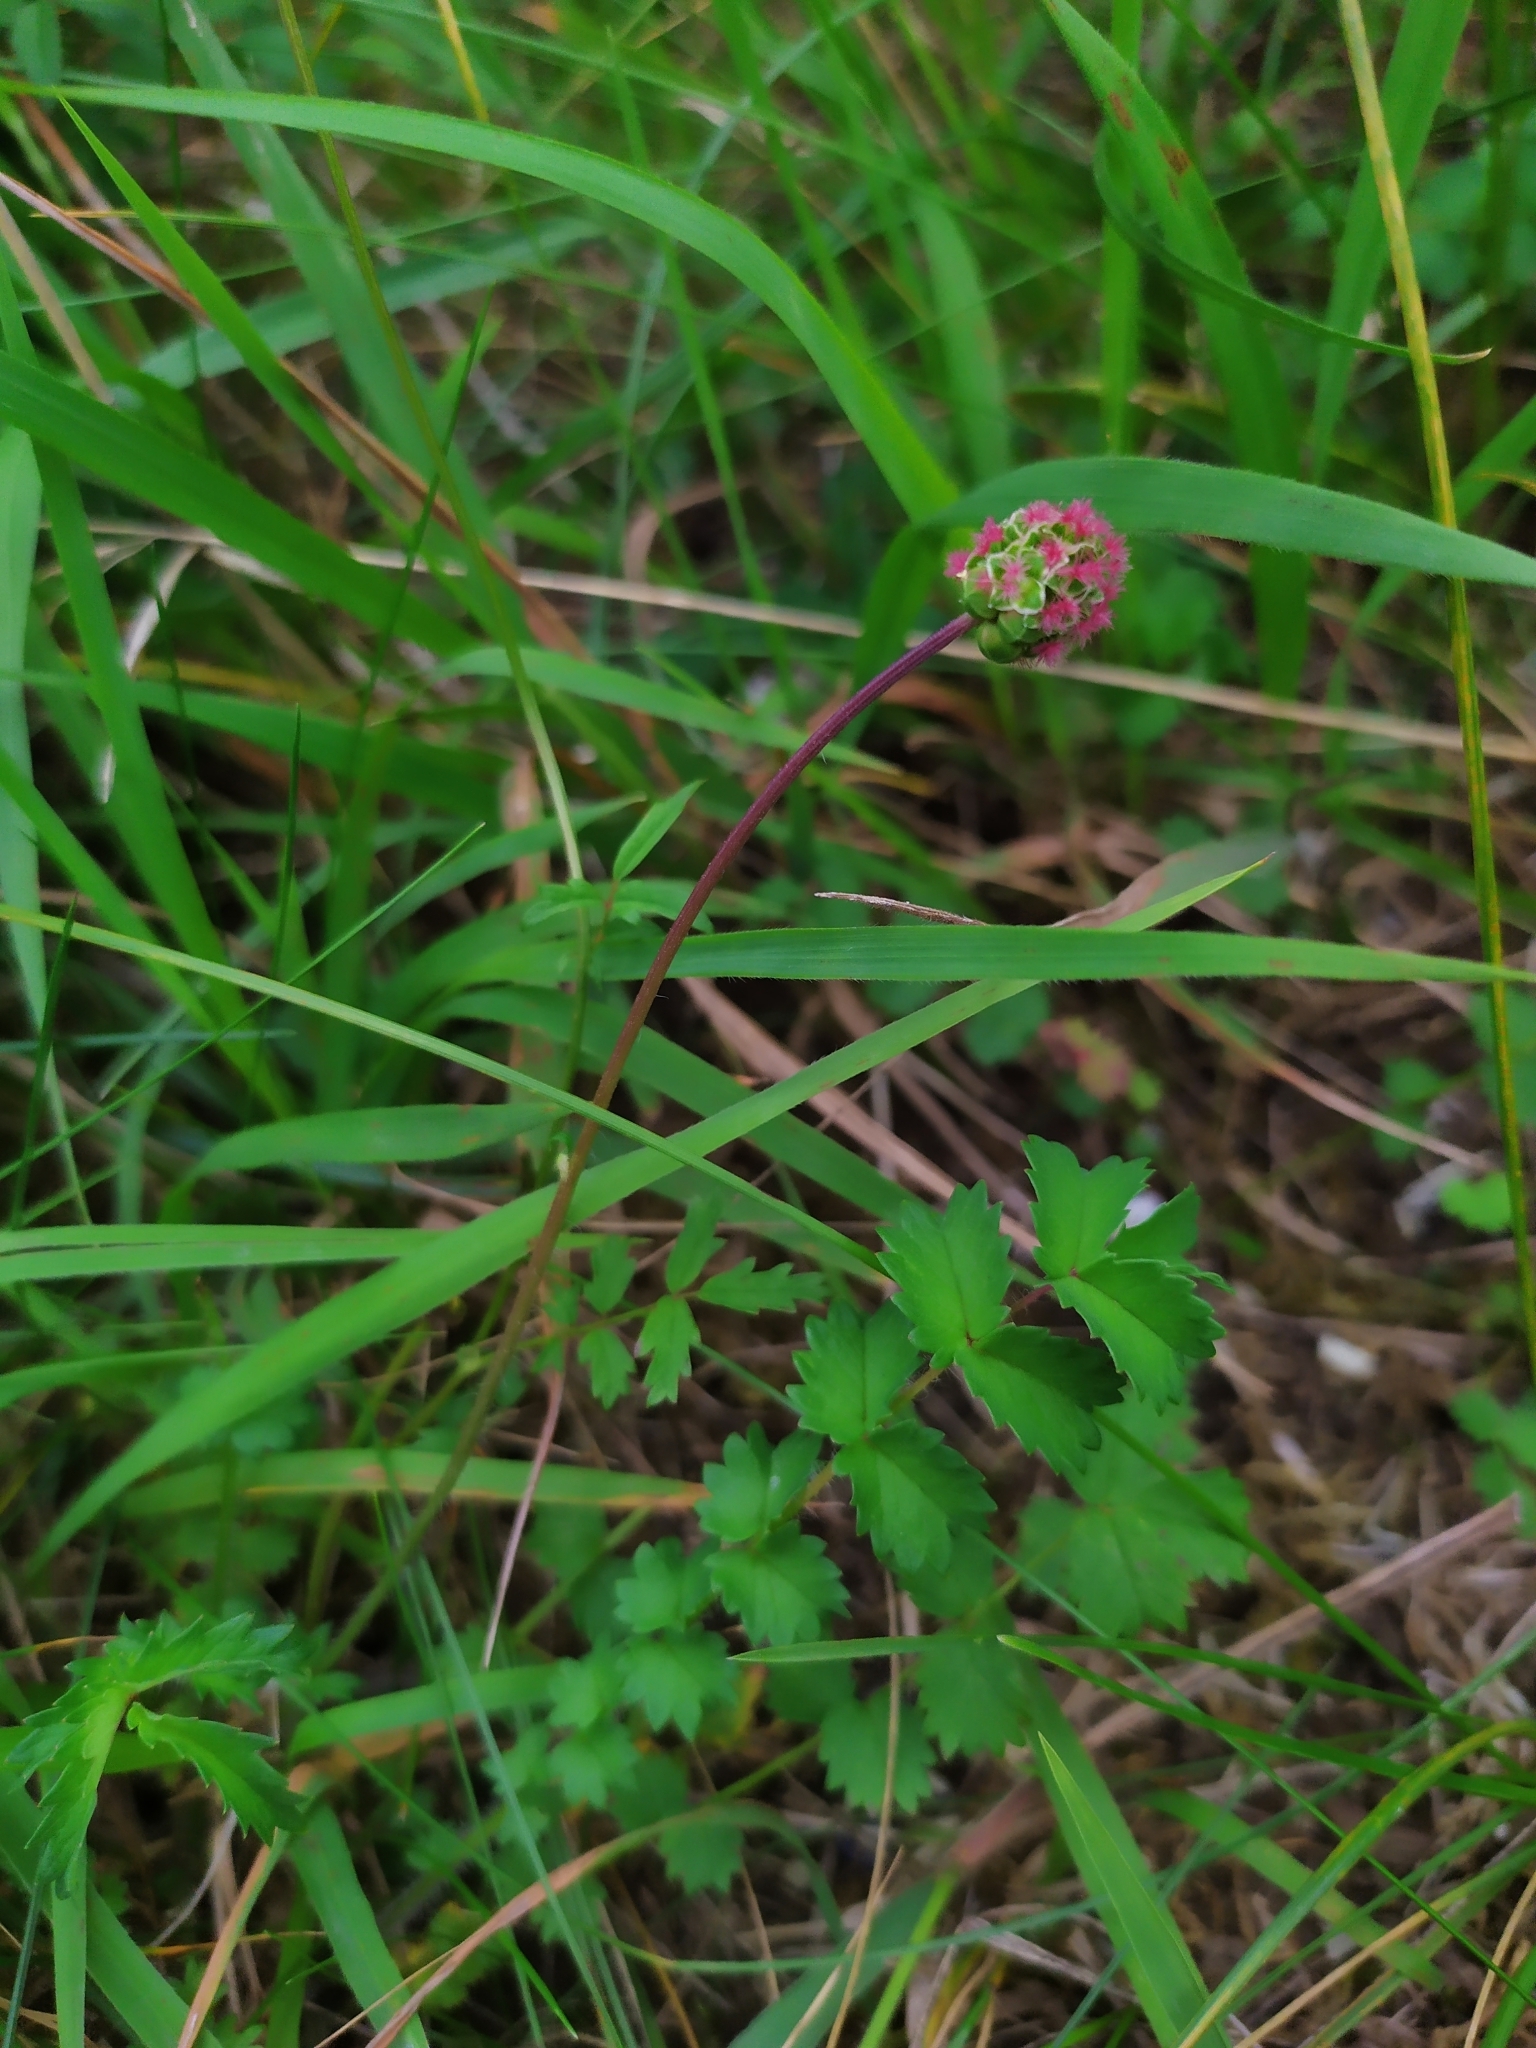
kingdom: Plantae
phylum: Tracheophyta
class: Magnoliopsida
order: Rosales
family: Rosaceae
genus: Poterium
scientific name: Poterium sanguisorba
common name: Salad burnet
